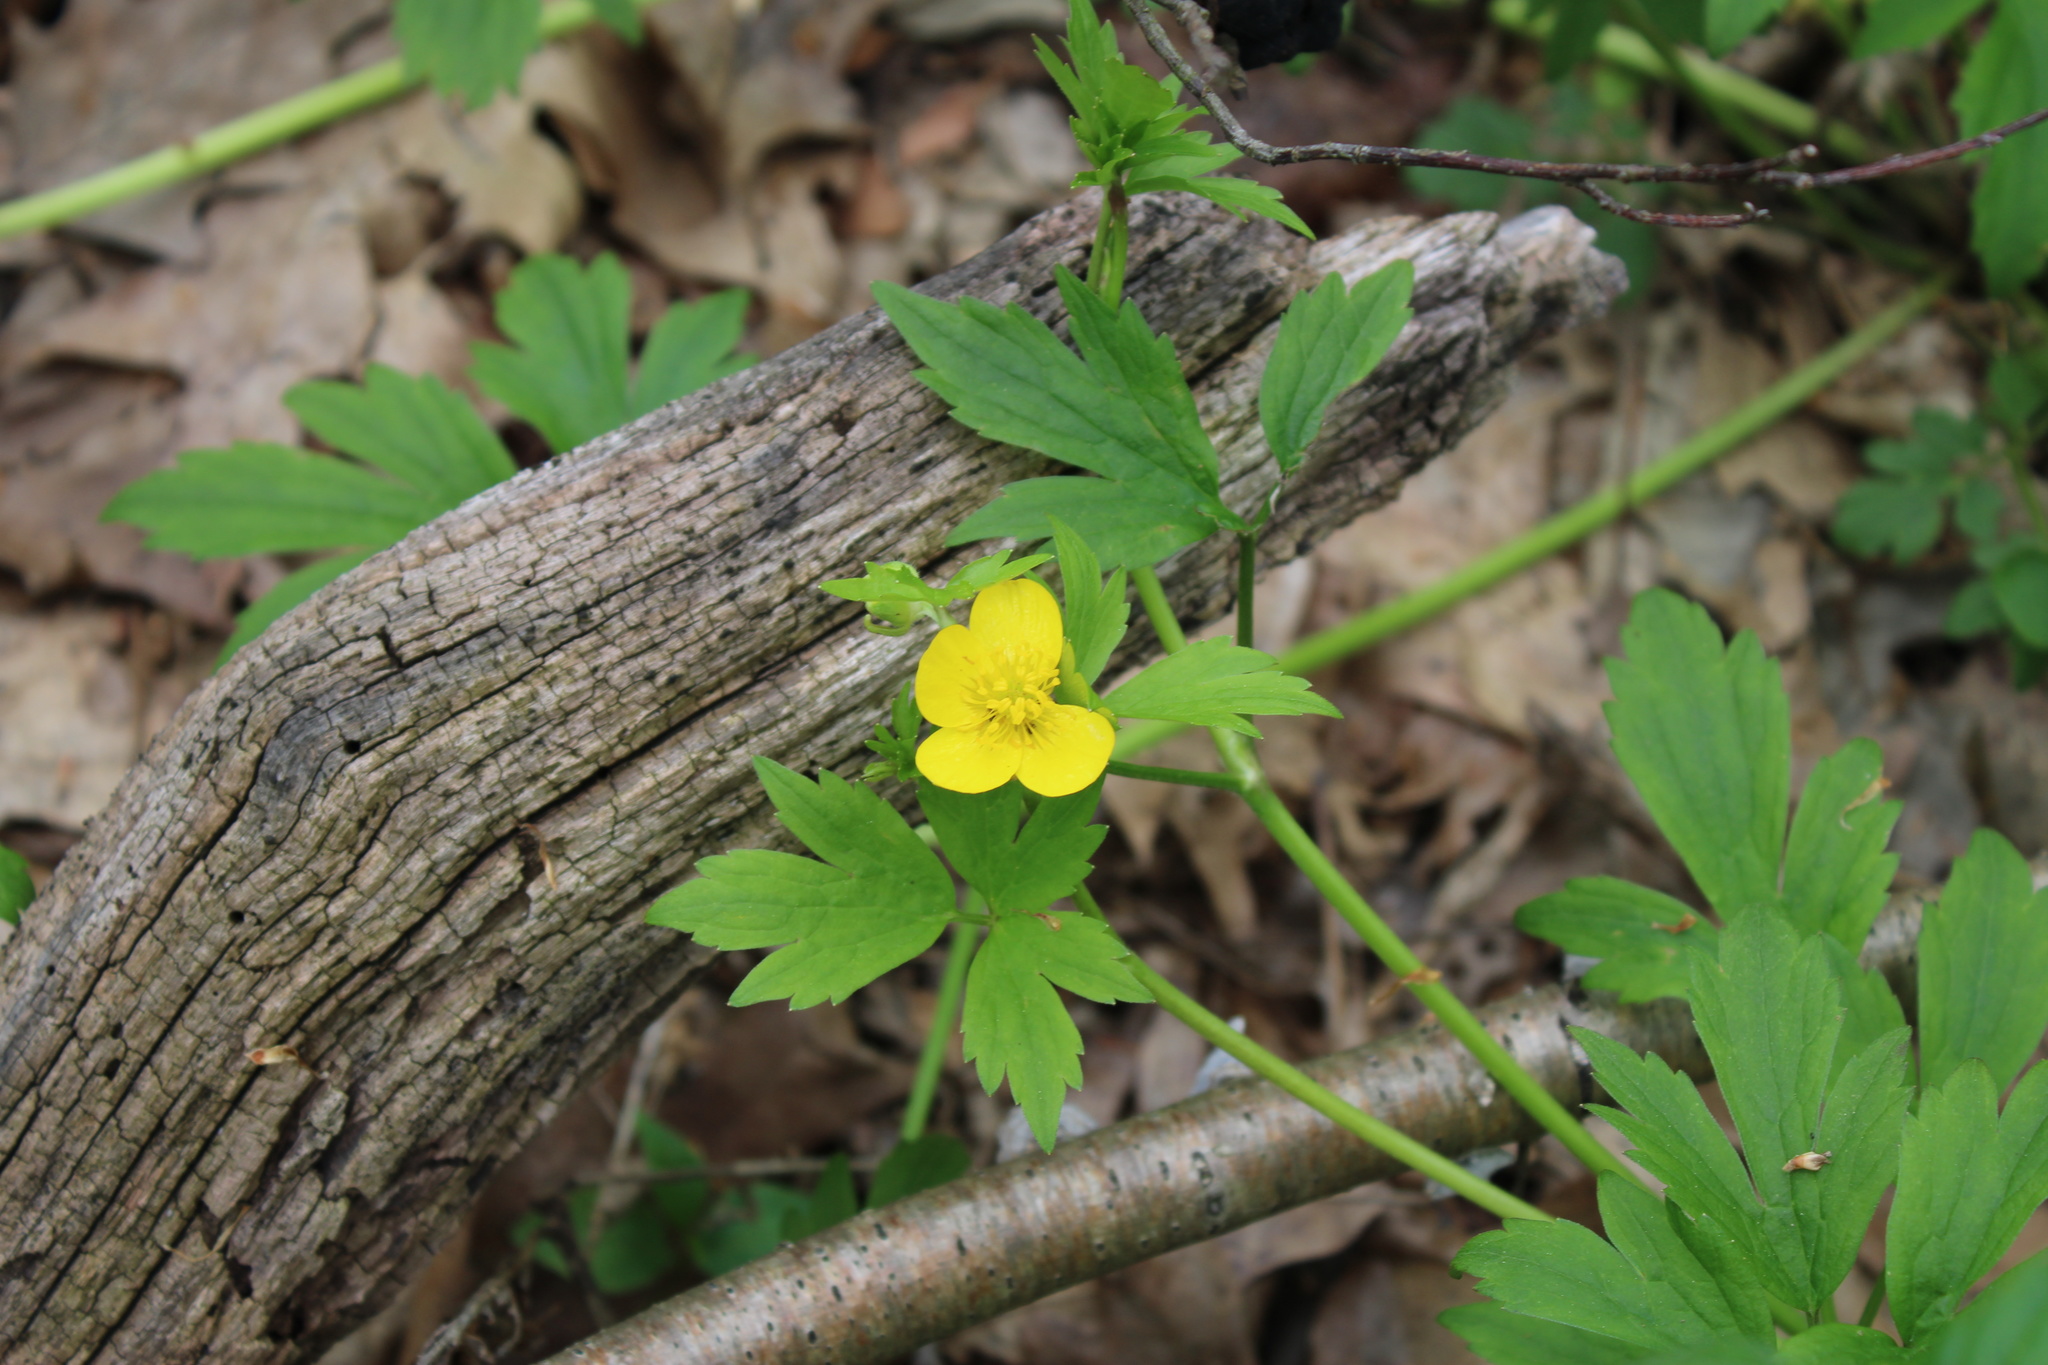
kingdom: Plantae
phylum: Tracheophyta
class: Magnoliopsida
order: Ranunculales
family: Ranunculaceae
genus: Ranunculus
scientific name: Ranunculus hispidus
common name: Bristly buttercup
